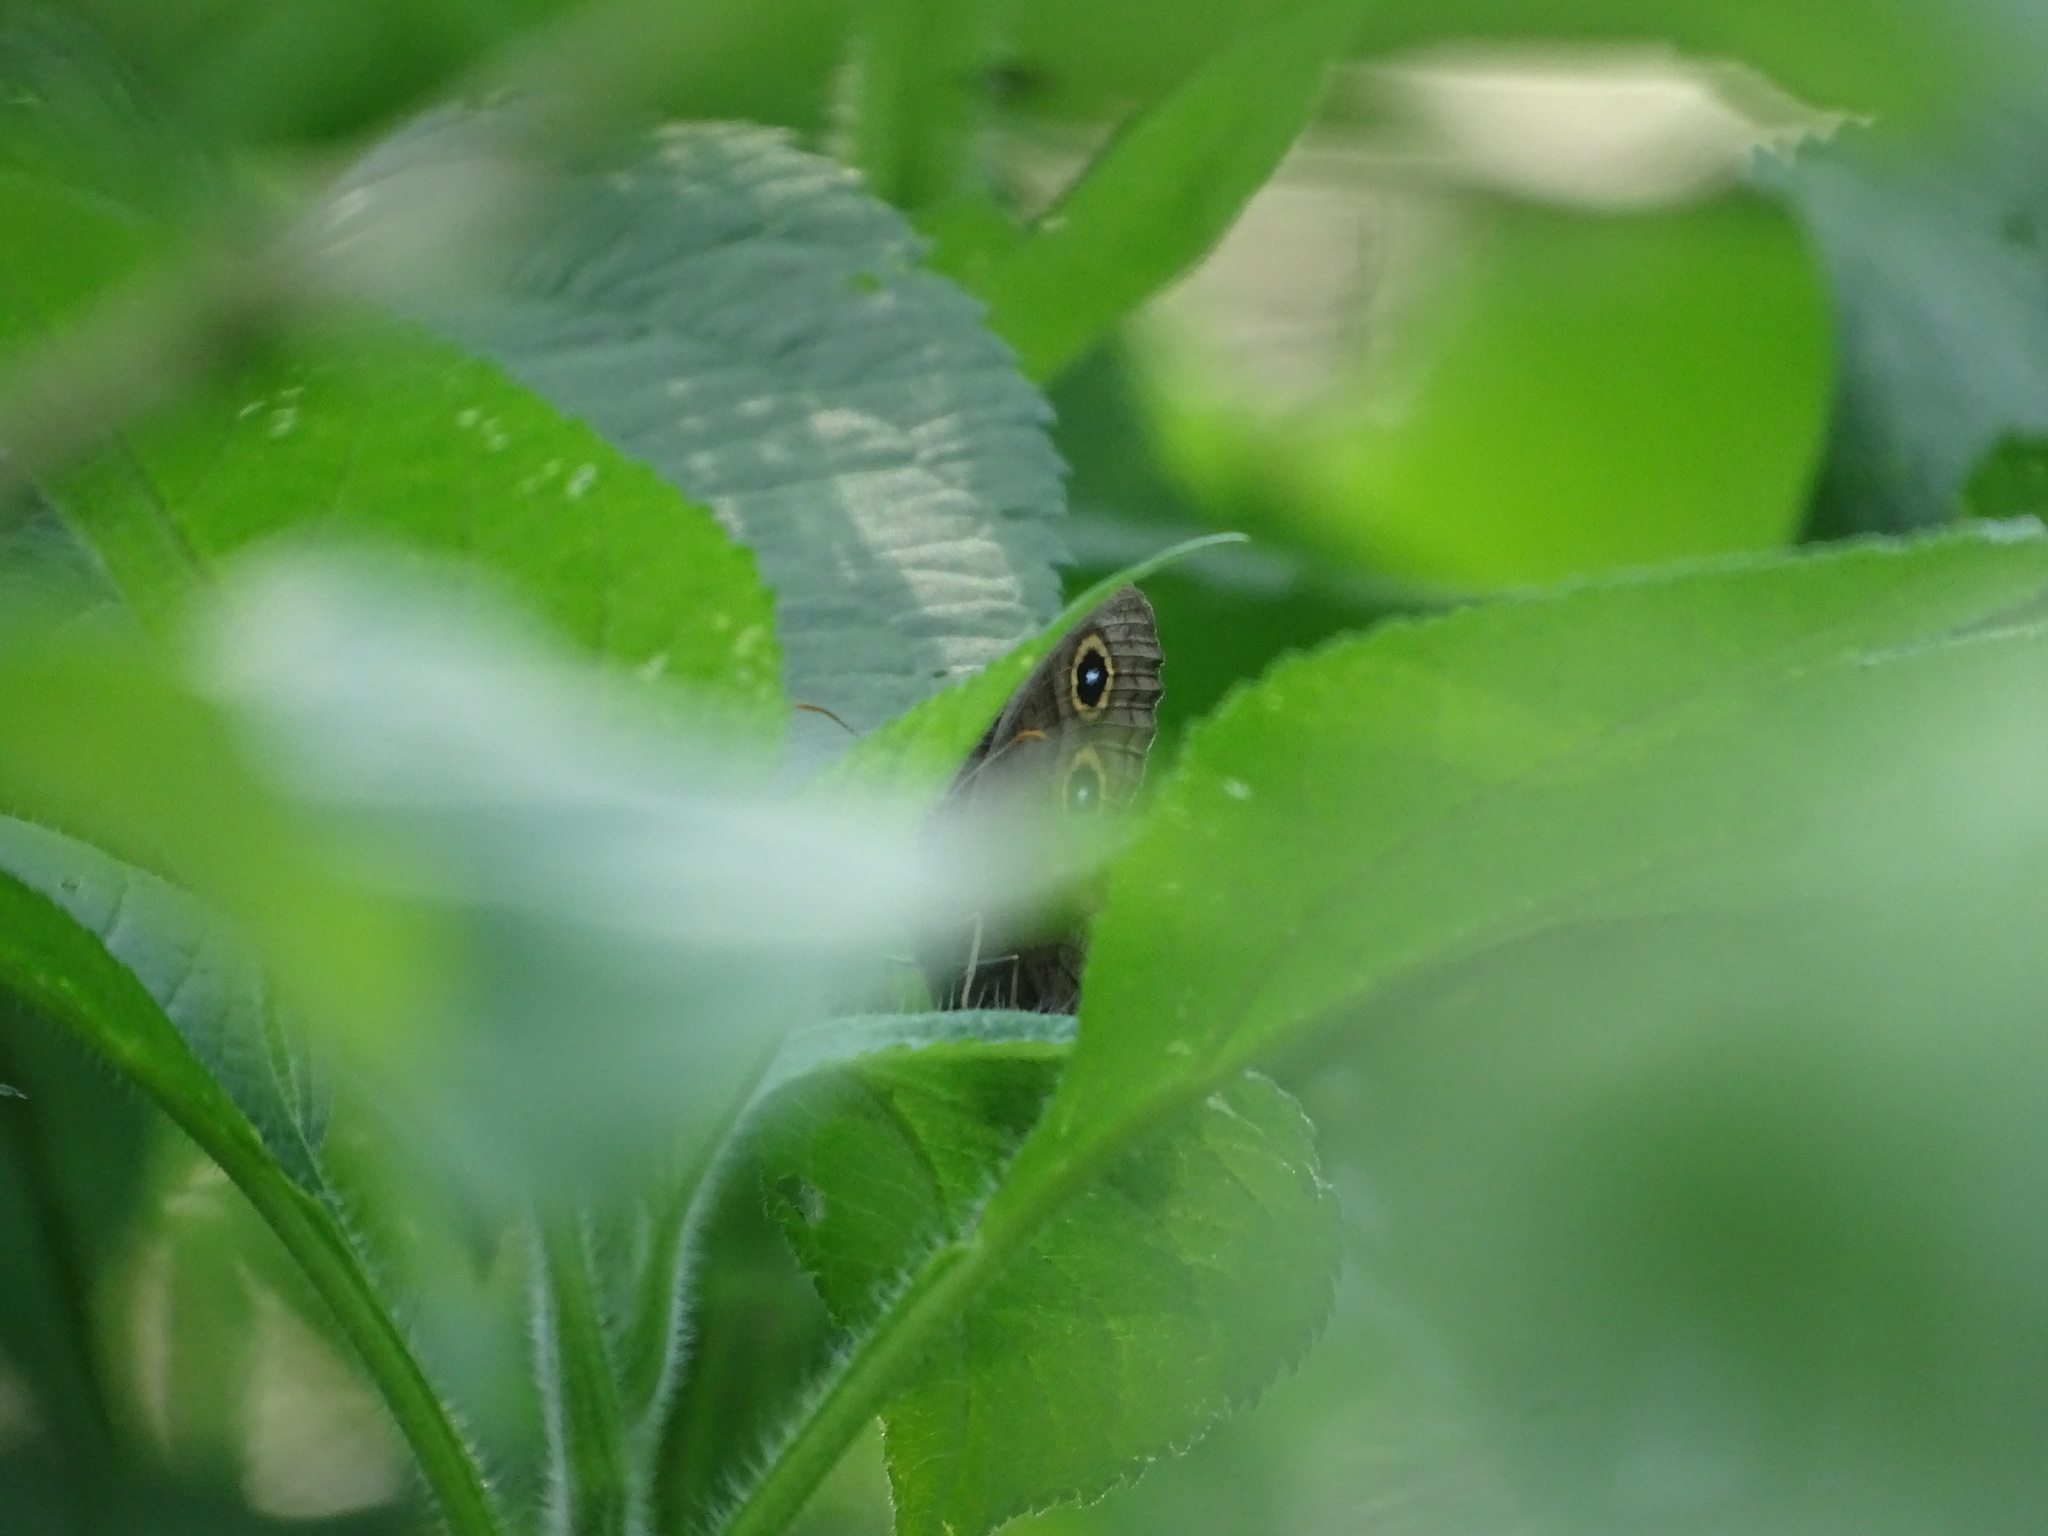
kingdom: Animalia
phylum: Arthropoda
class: Insecta
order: Lepidoptera
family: Nymphalidae
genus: Cercyonis
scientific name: Cercyonis pegala
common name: Common wood-nymph
